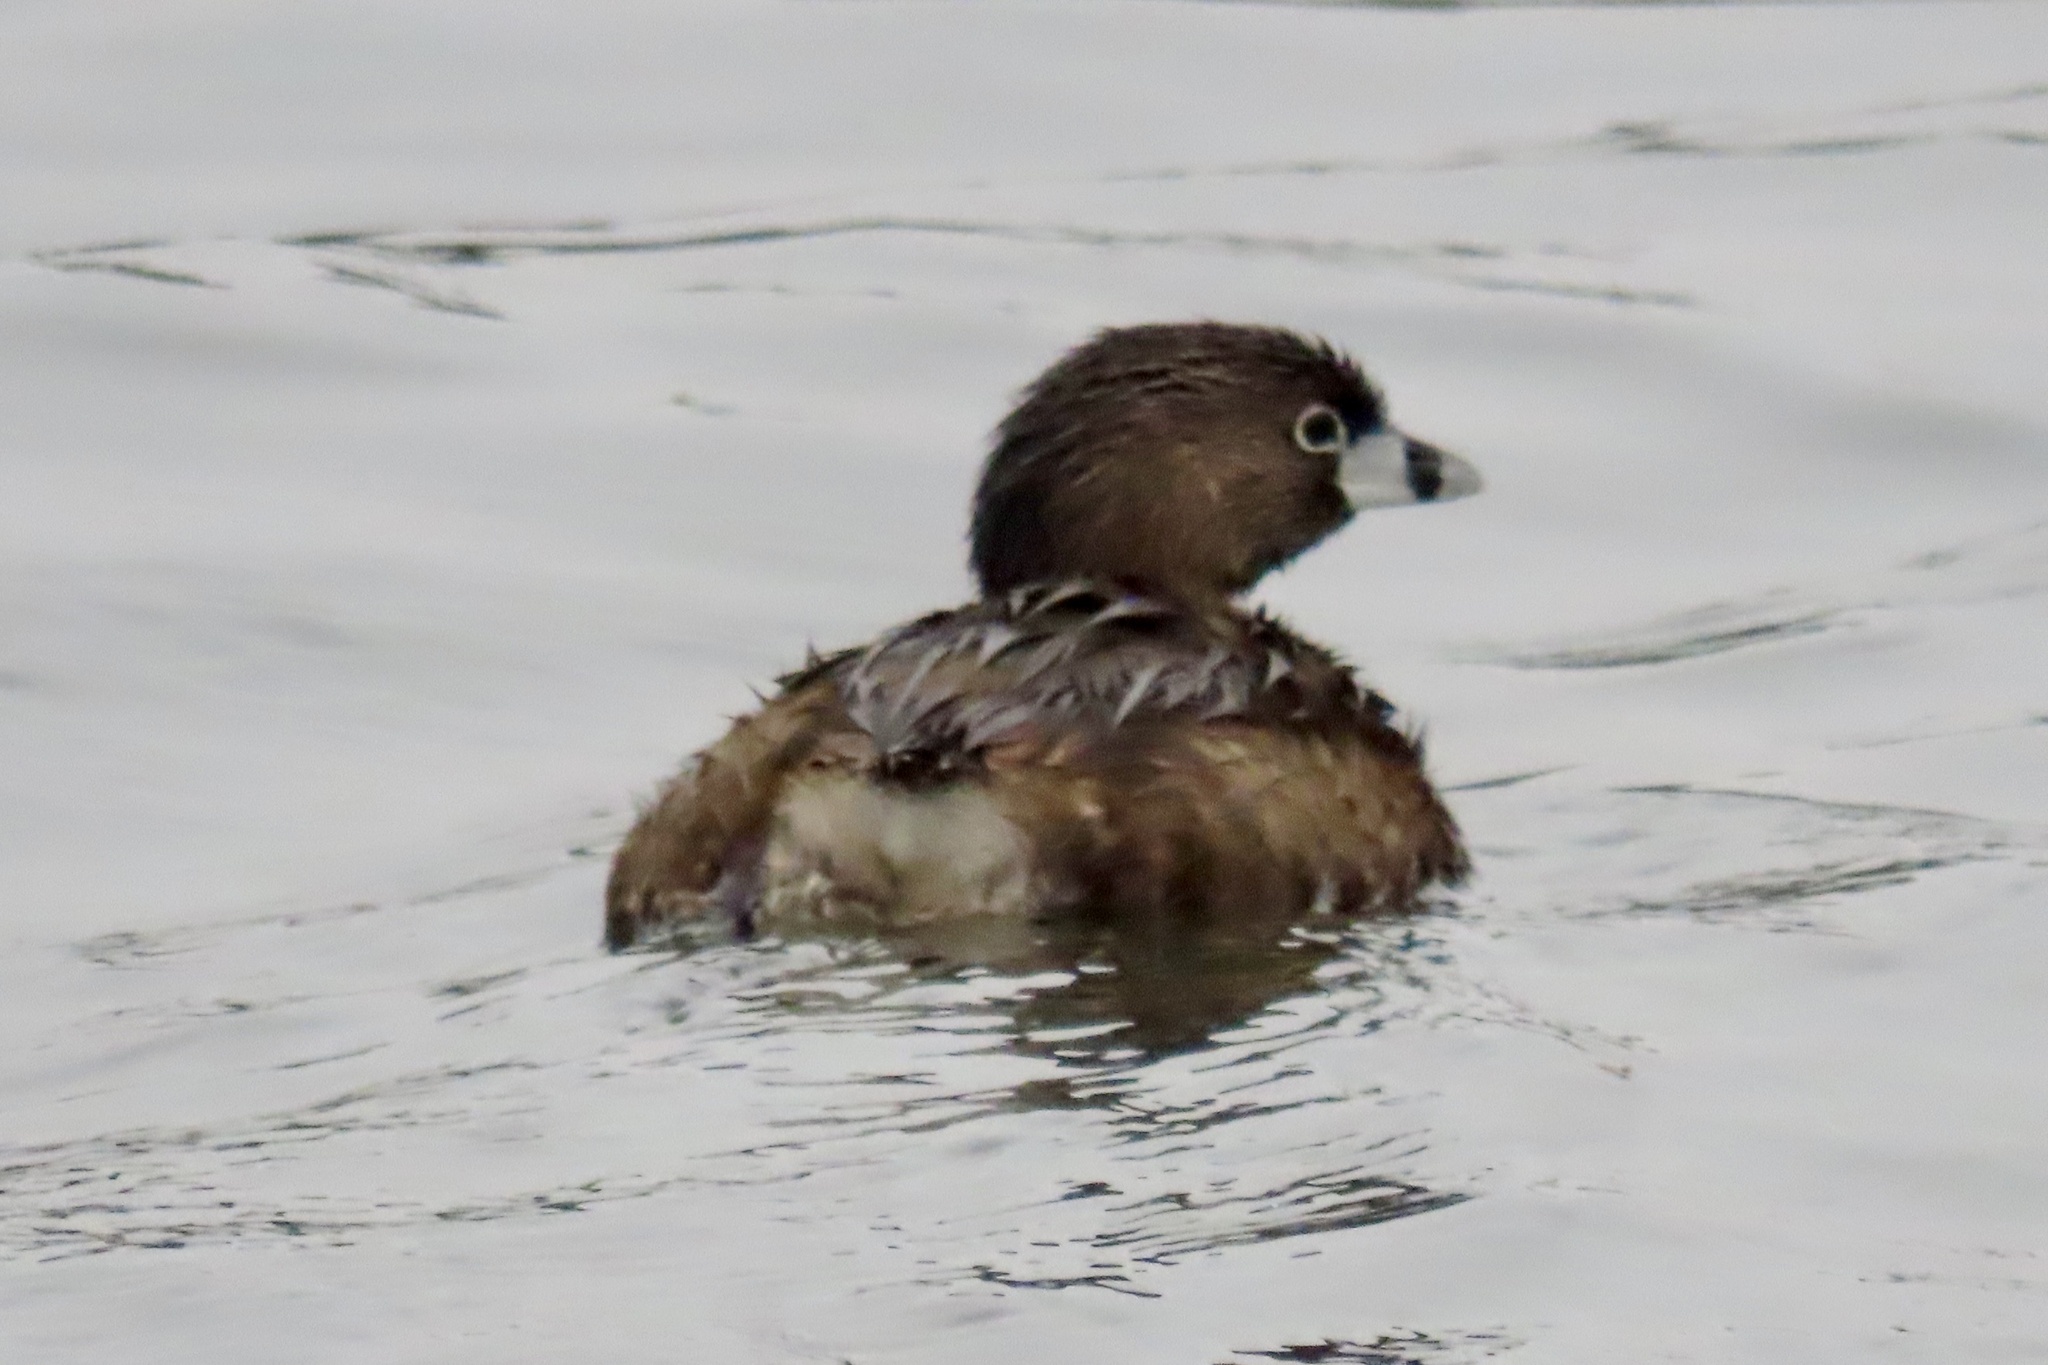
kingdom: Animalia
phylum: Chordata
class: Aves
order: Podicipediformes
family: Podicipedidae
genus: Podilymbus
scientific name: Podilymbus podiceps
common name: Pied-billed grebe
